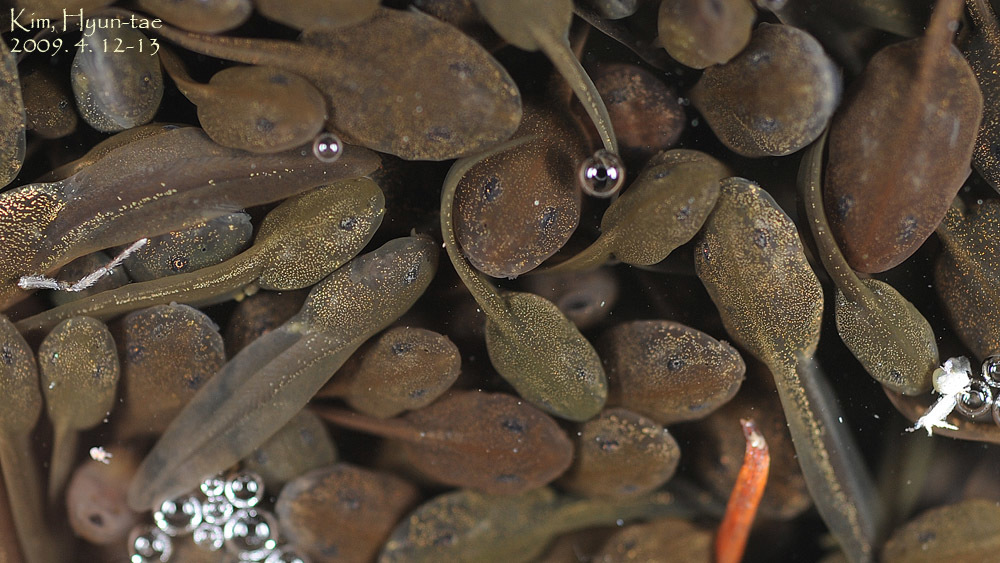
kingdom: Animalia
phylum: Chordata
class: Amphibia
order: Anura
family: Ranidae
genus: Rana
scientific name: Rana uenoi
